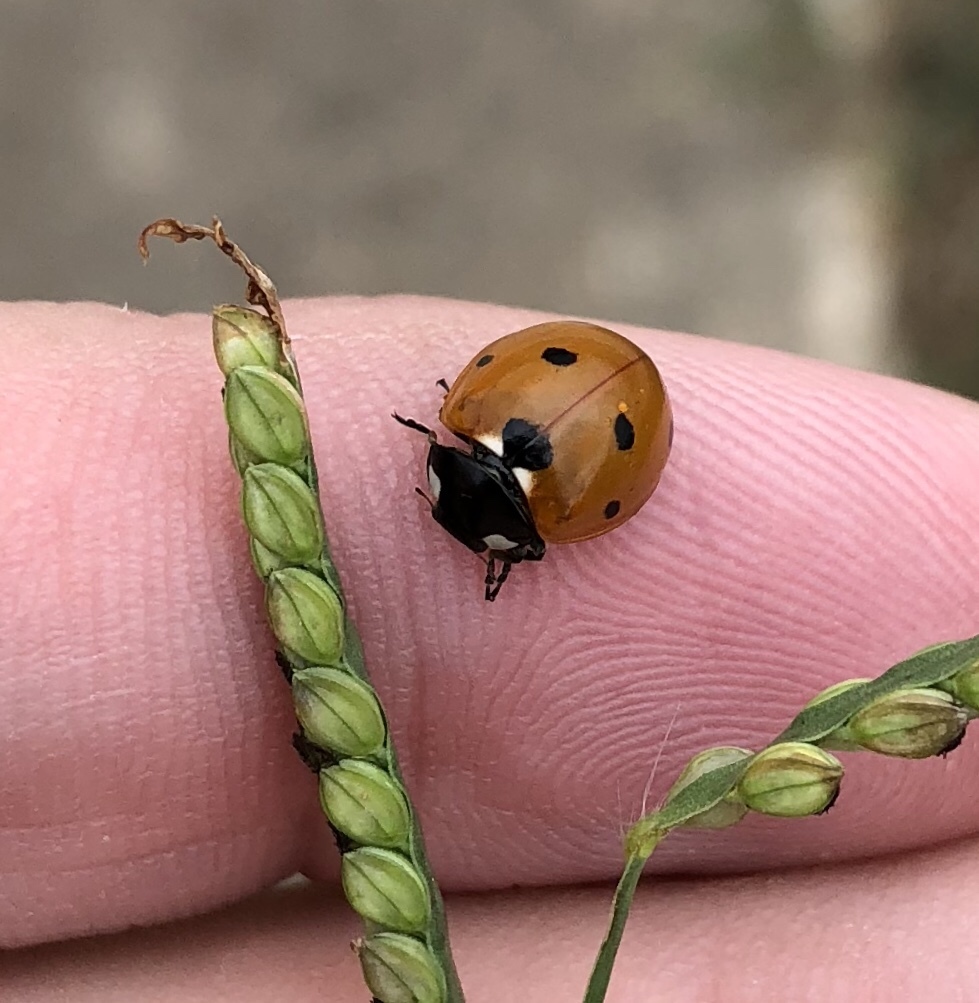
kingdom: Animalia
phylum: Arthropoda
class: Insecta
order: Coleoptera
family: Coccinellidae
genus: Coccinella
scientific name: Coccinella septempunctata
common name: Sevenspotted lady beetle
